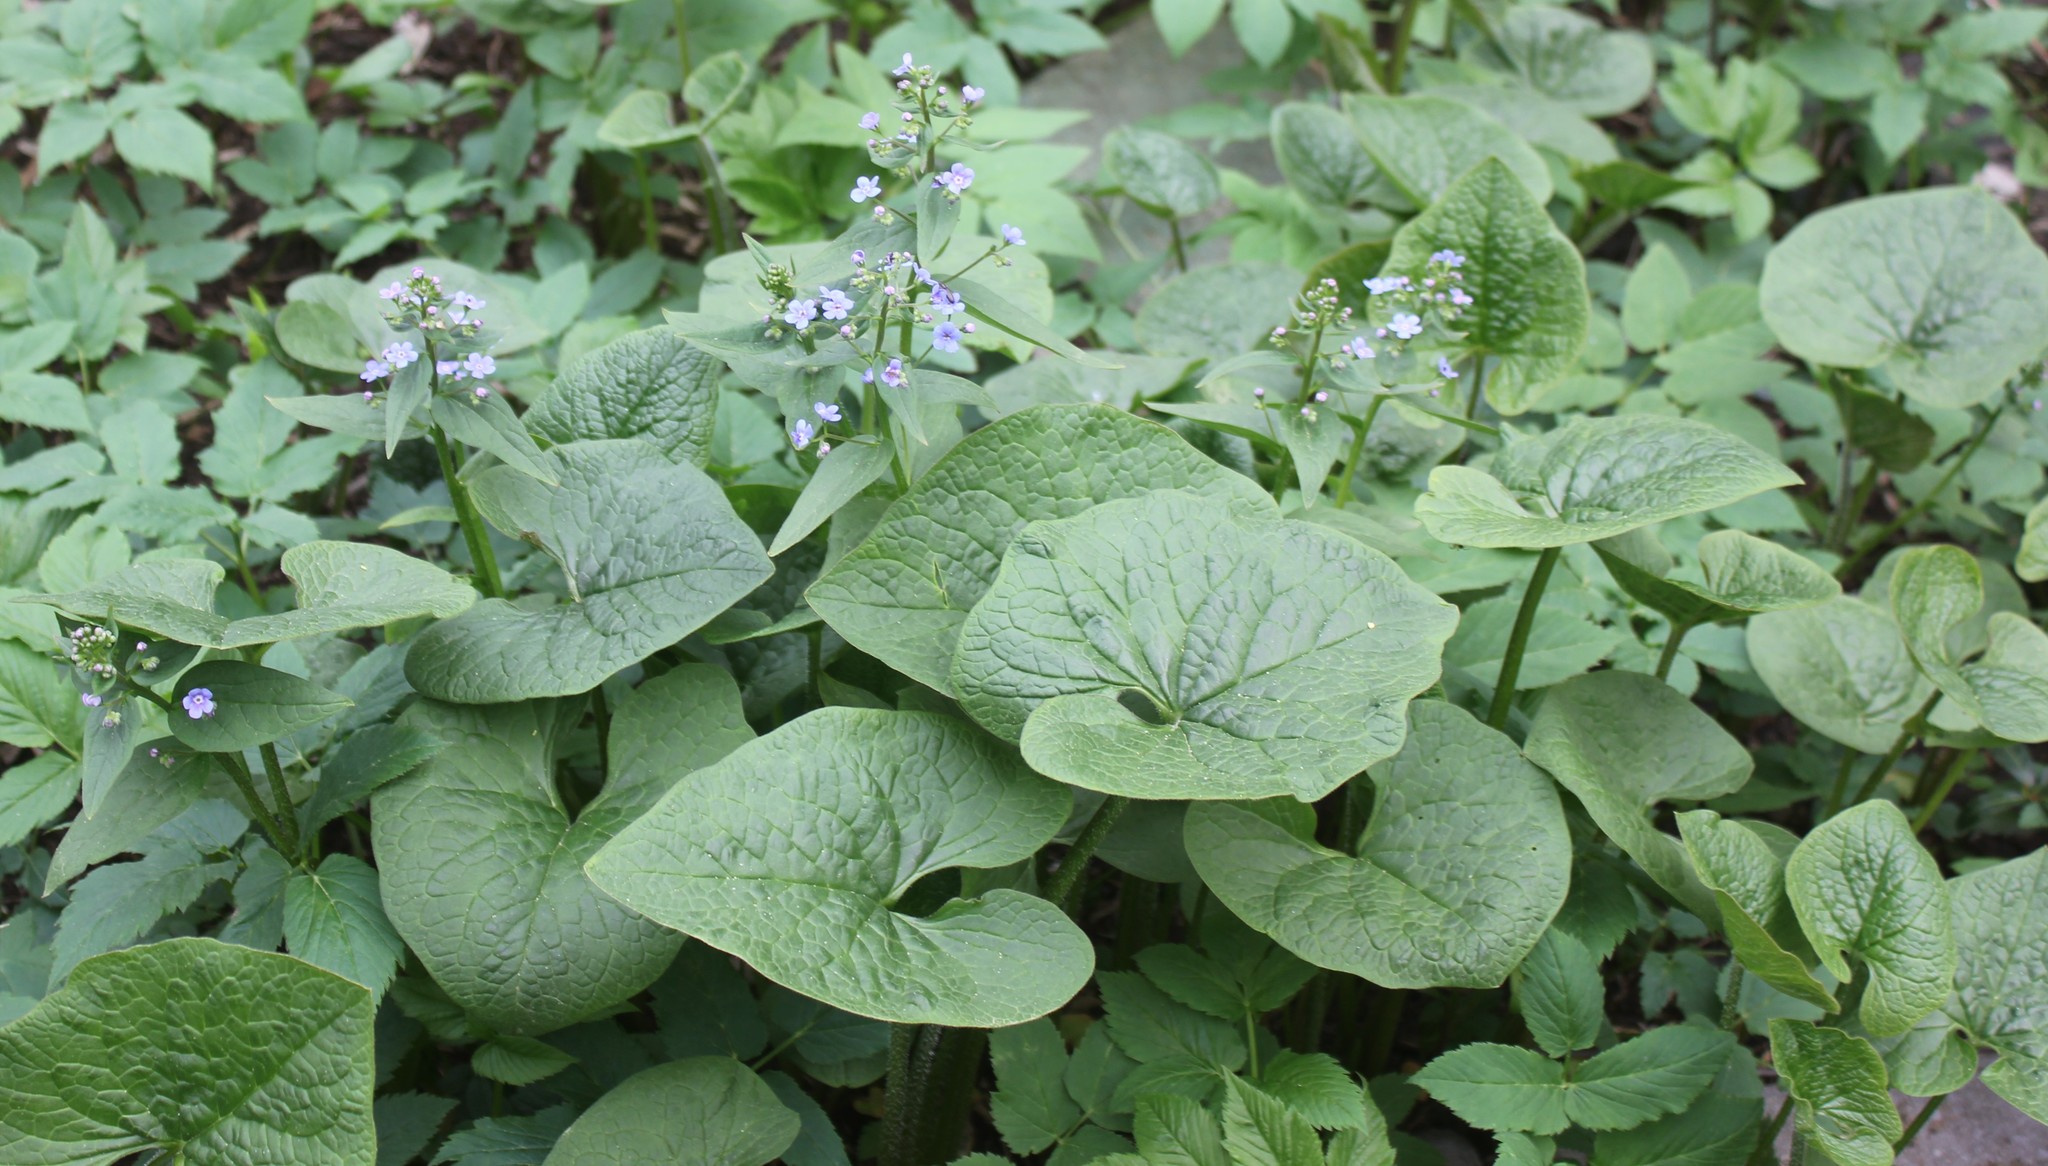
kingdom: Plantae
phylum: Tracheophyta
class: Magnoliopsida
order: Boraginales
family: Boraginaceae
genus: Brunnera
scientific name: Brunnera sibirica
